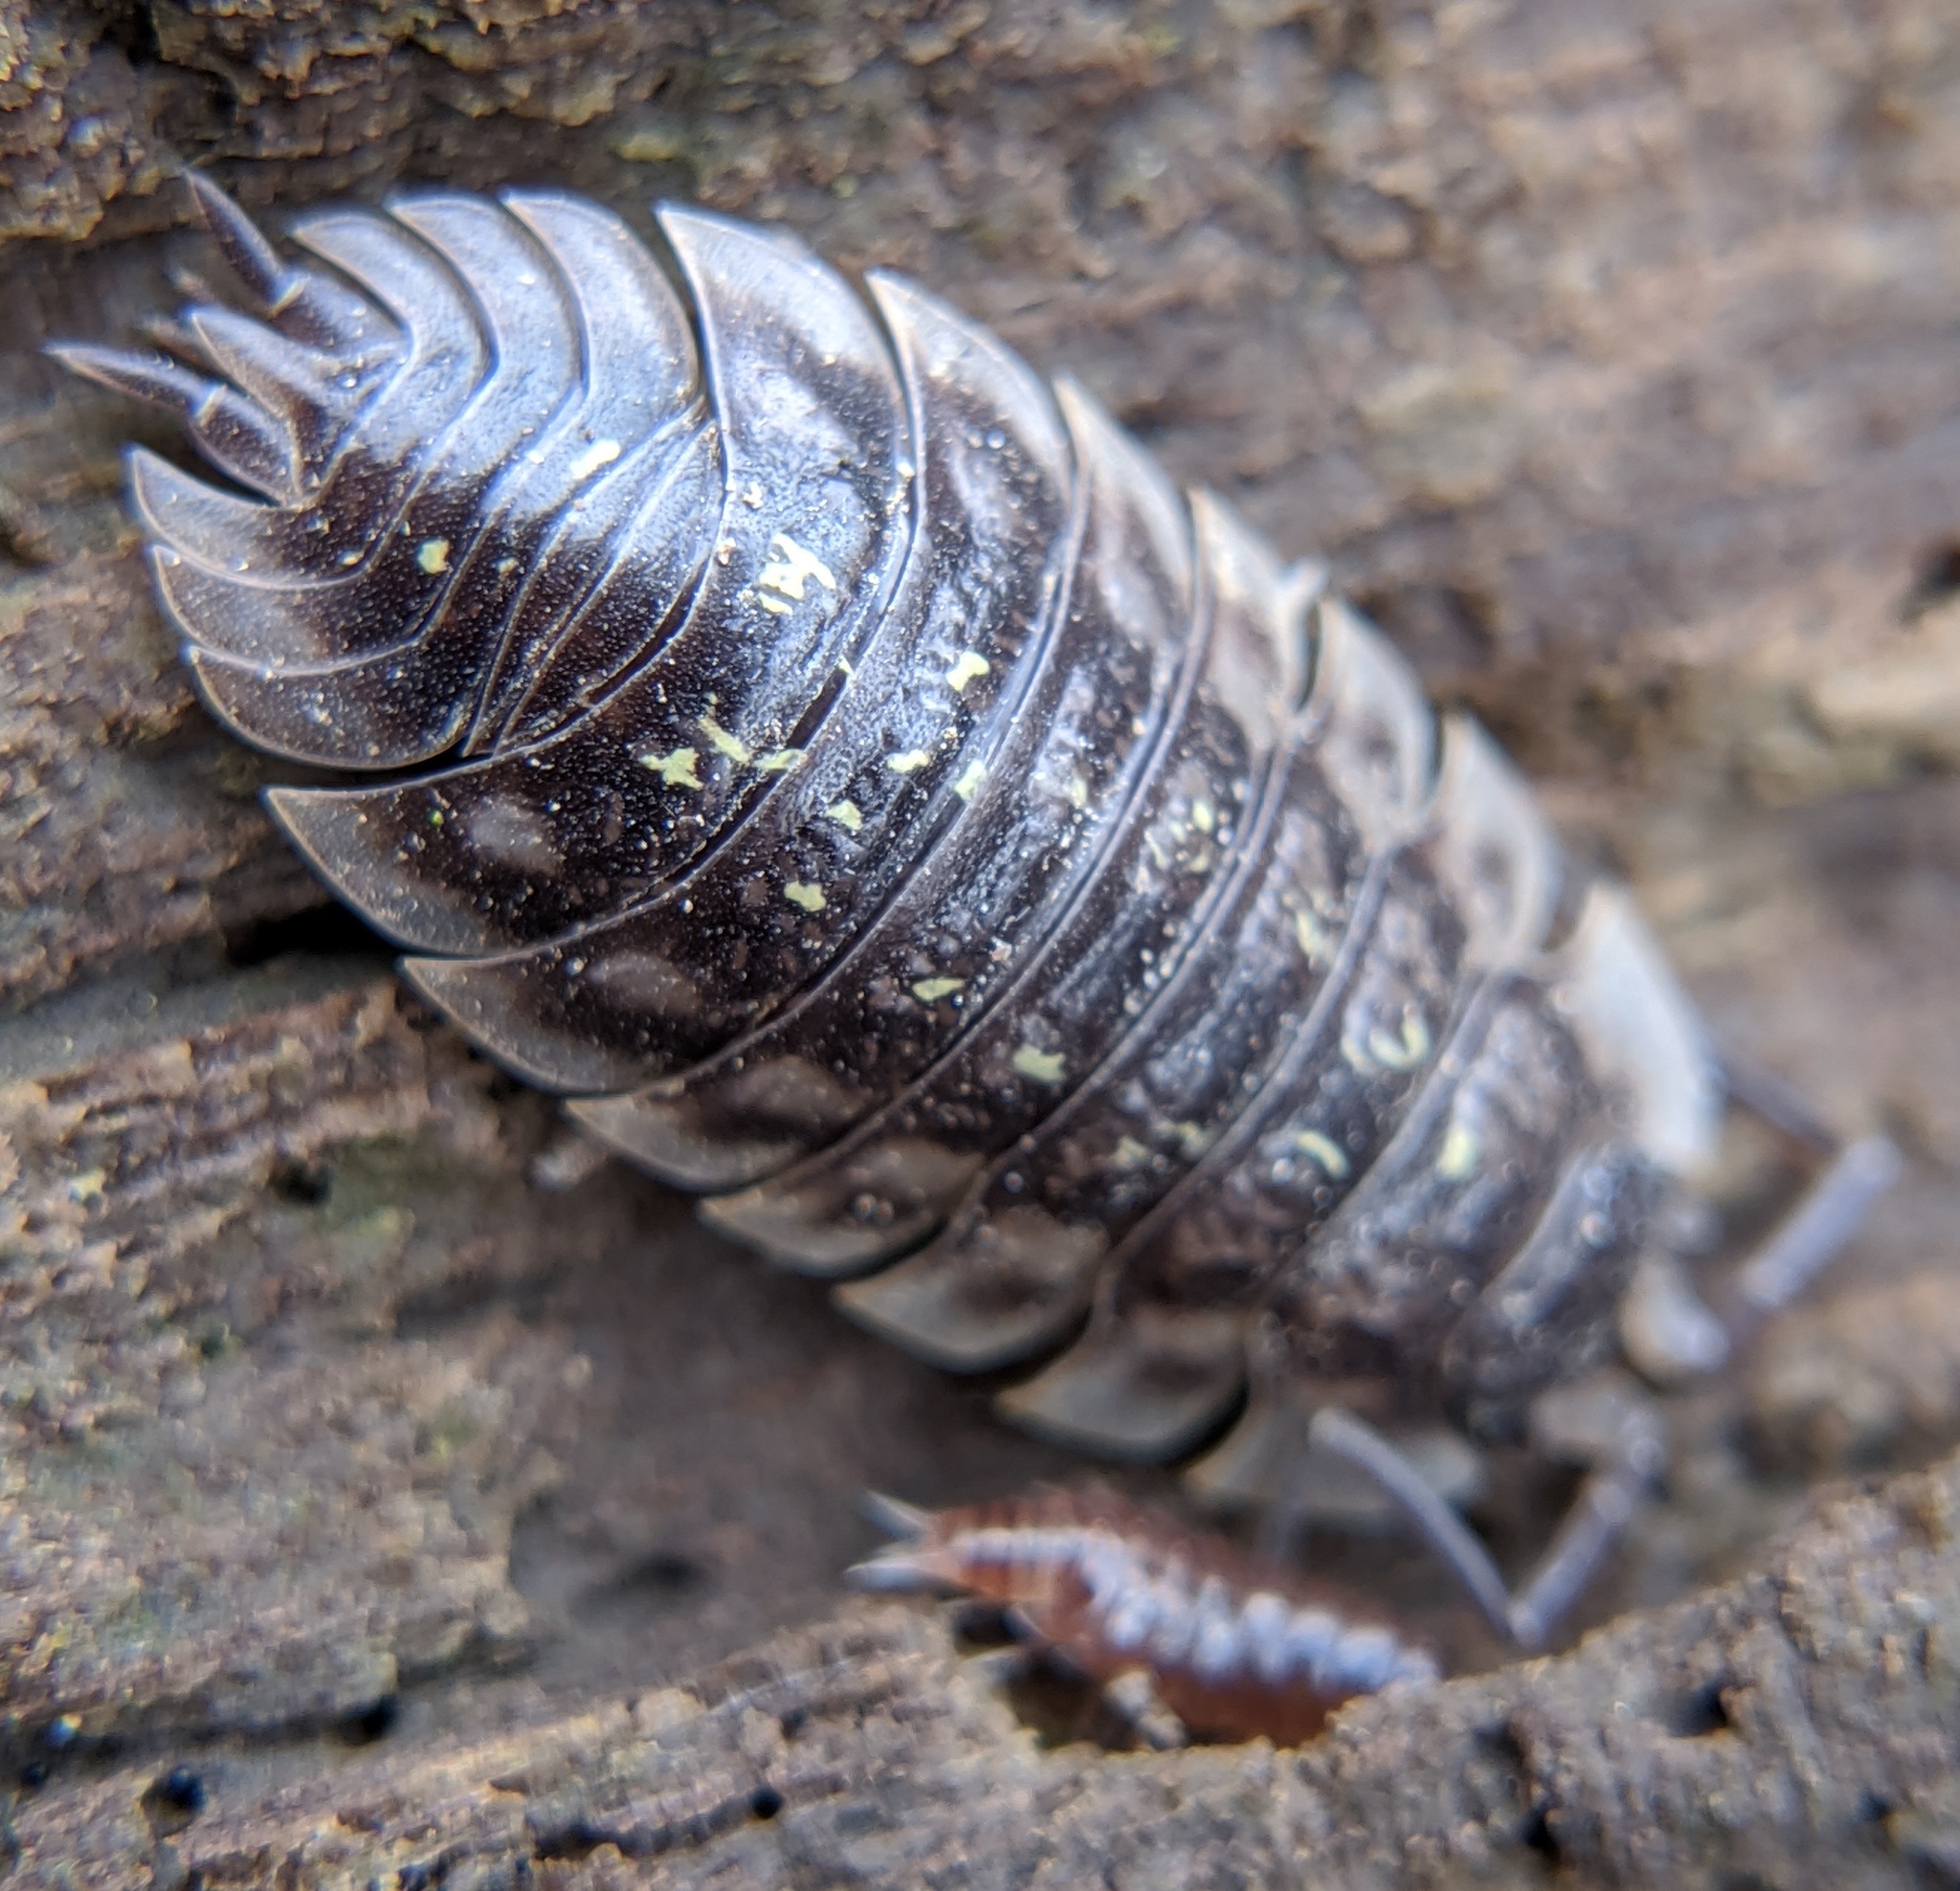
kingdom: Animalia
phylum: Arthropoda
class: Malacostraca
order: Isopoda
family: Oniscidae
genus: Oniscus
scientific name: Oniscus asellus
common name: Common shiny woodlouse
